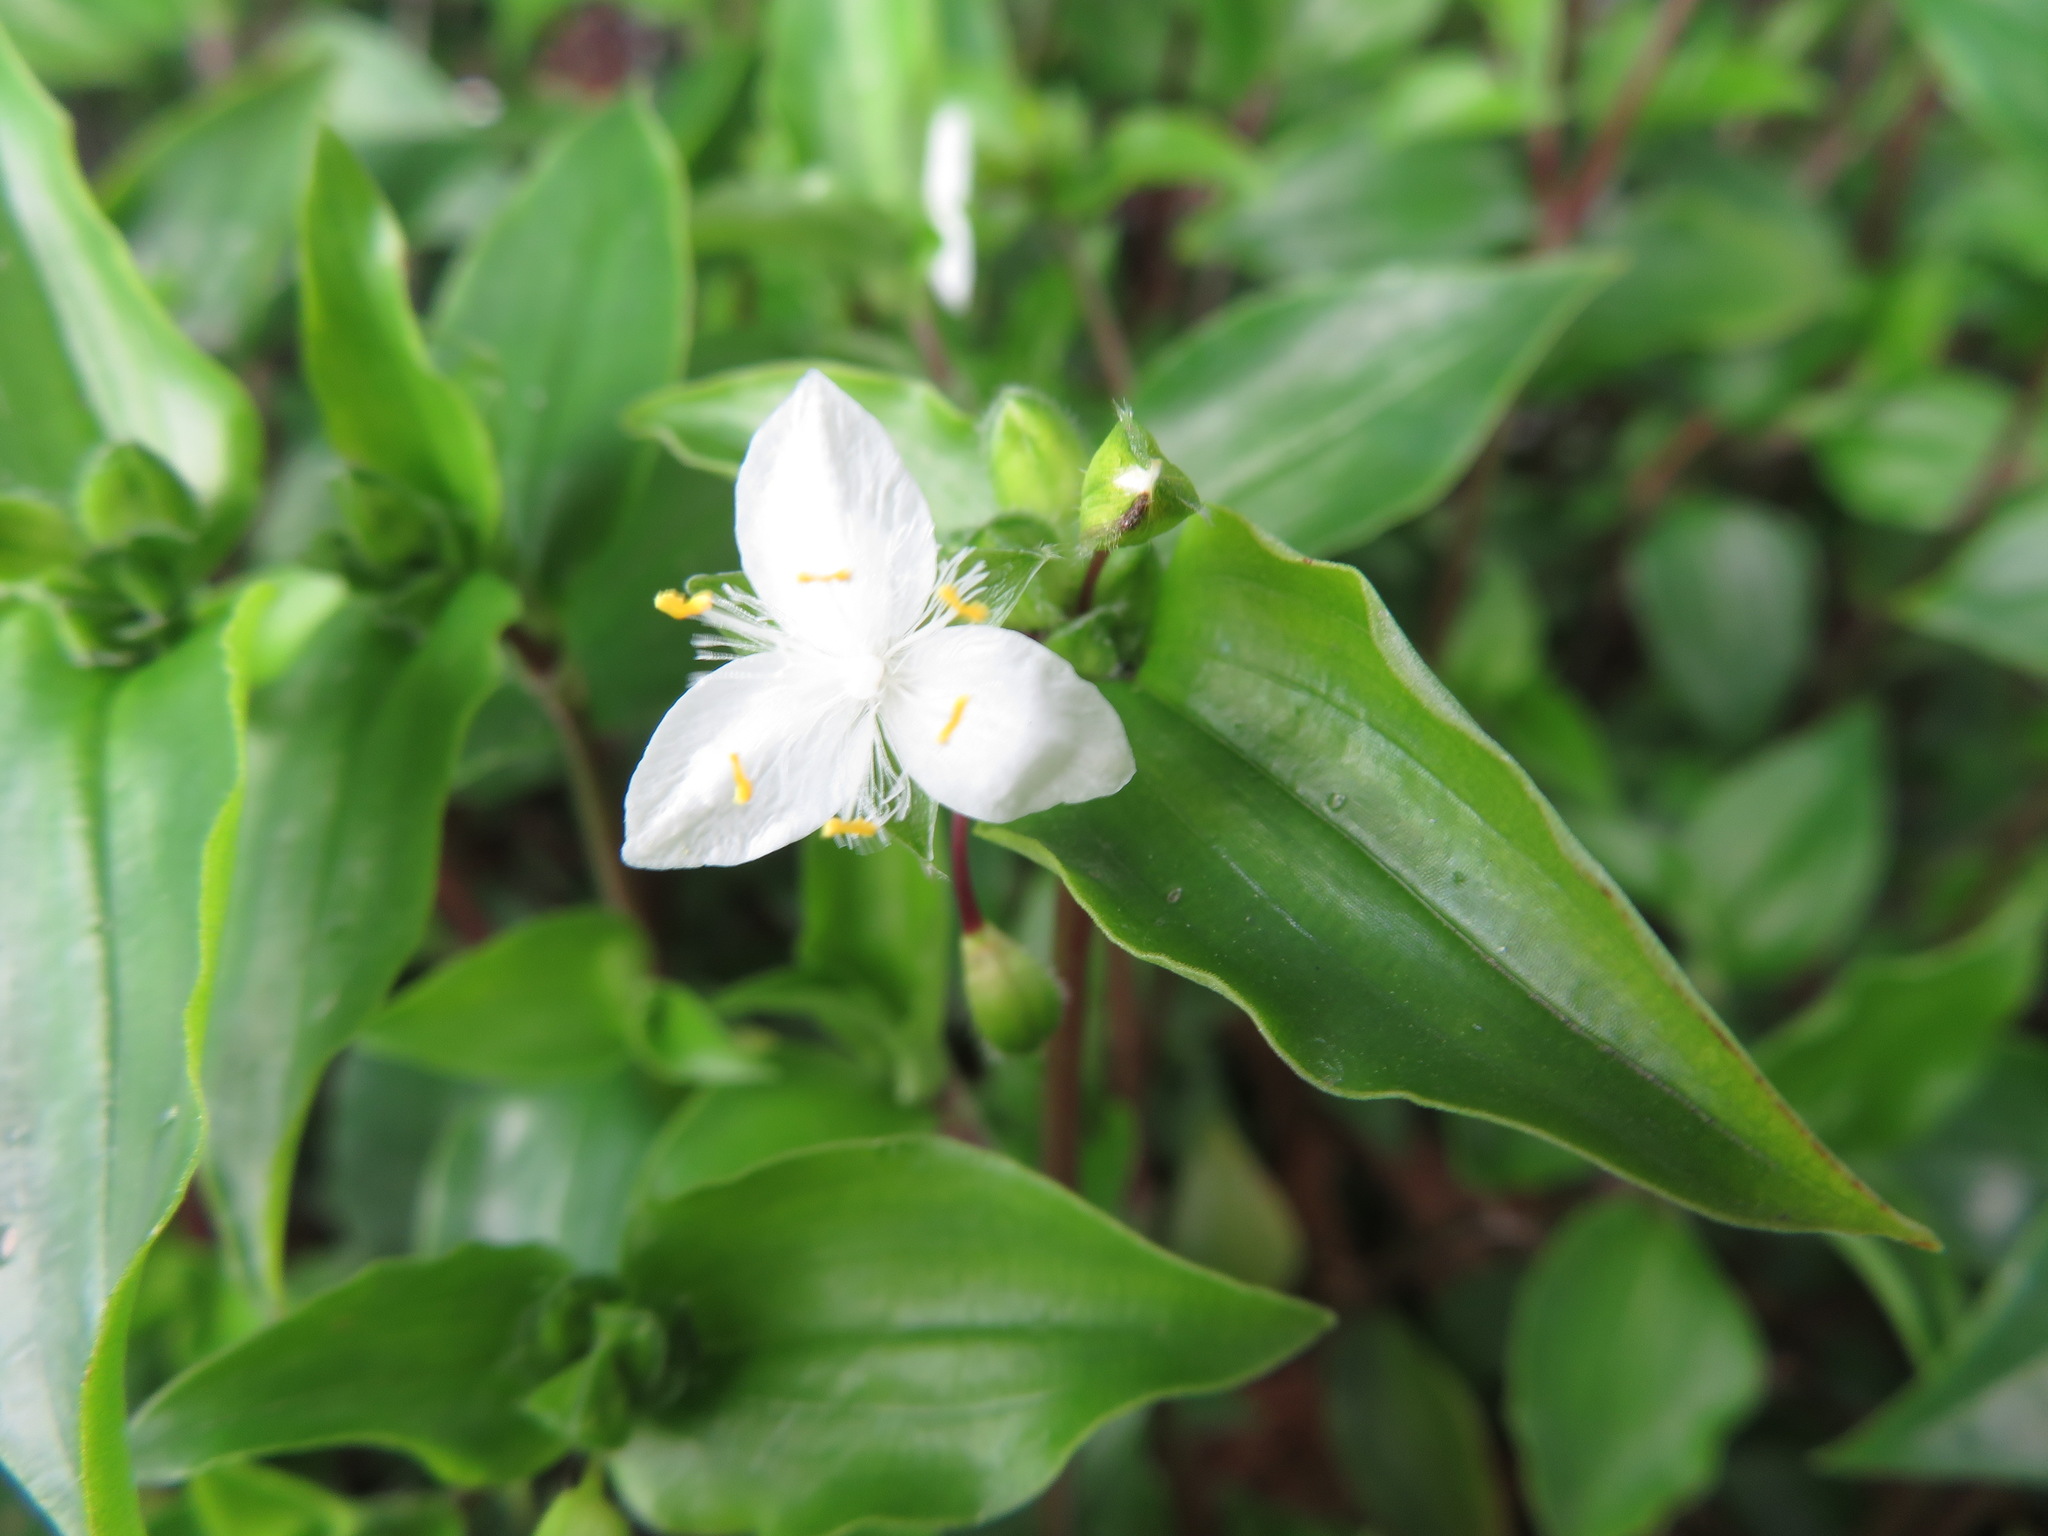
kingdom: Plantae
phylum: Tracheophyta
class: Liliopsida
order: Commelinales
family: Commelinaceae
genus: Tradescantia
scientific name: Tradescantia fluminensis
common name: Wandering-jew
